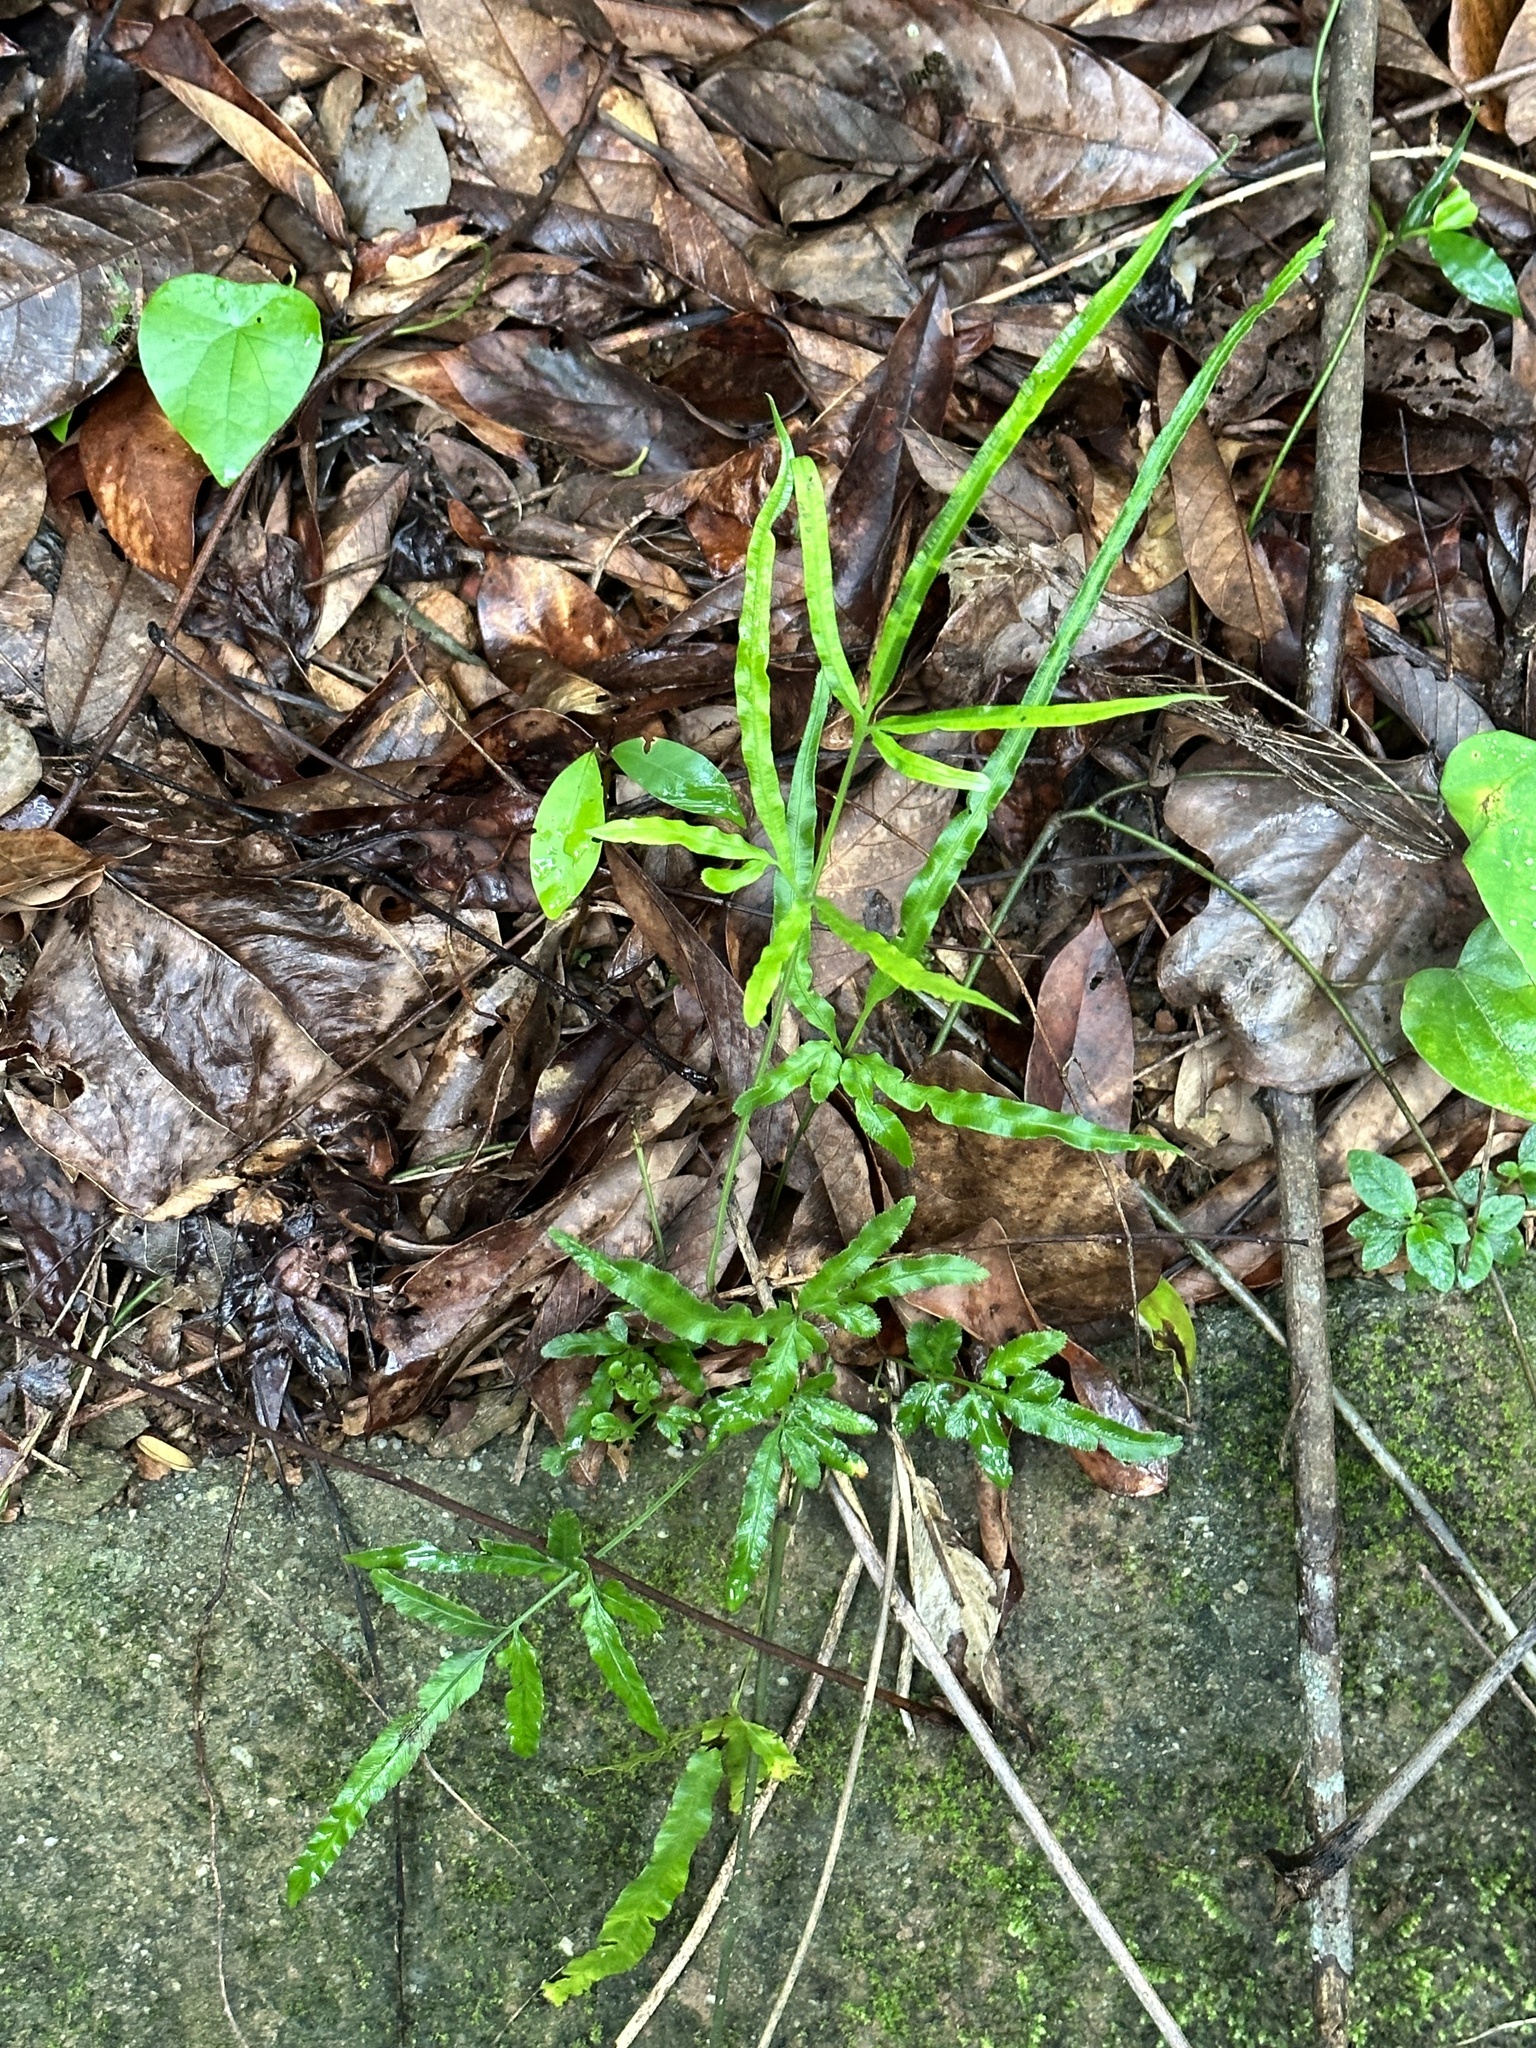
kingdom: Plantae
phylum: Tracheophyta
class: Polypodiopsida
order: Polypodiales
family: Pteridaceae
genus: Pteris
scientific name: Pteris ensiformis
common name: Sword brake
